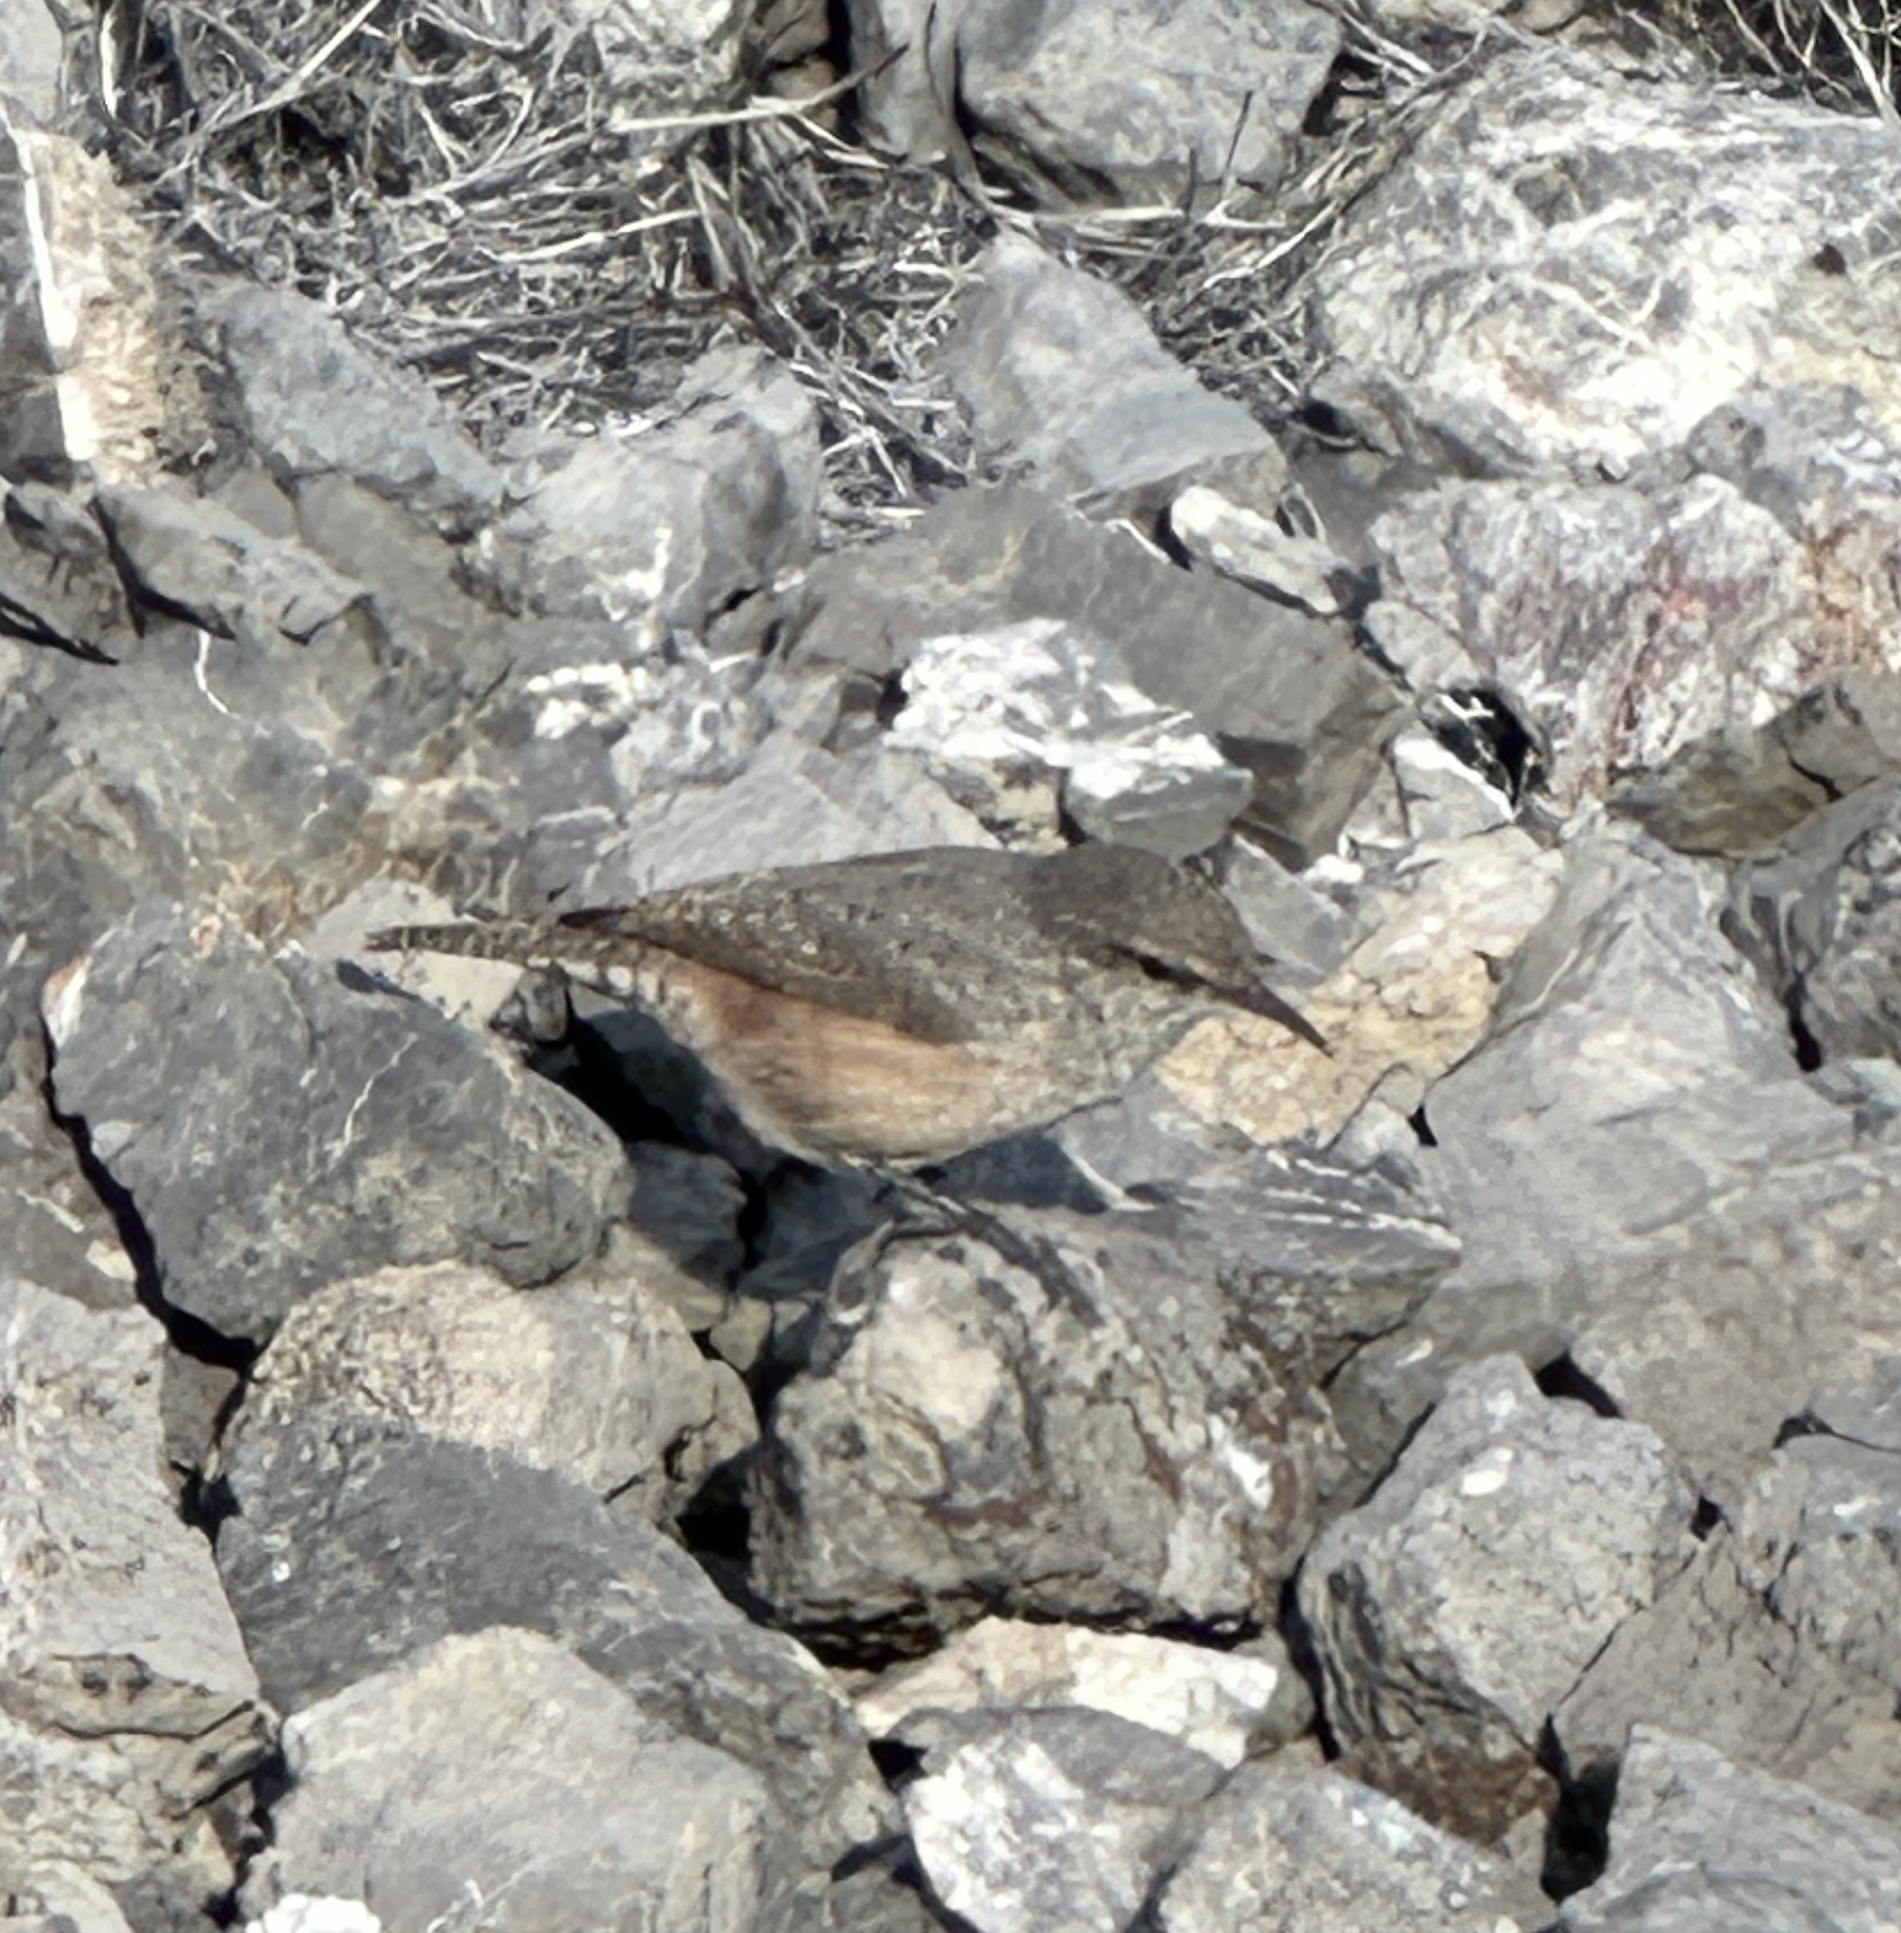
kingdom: Animalia
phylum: Chordata
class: Aves
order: Passeriformes
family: Troglodytidae
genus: Salpinctes
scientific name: Salpinctes obsoletus
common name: Rock wren
